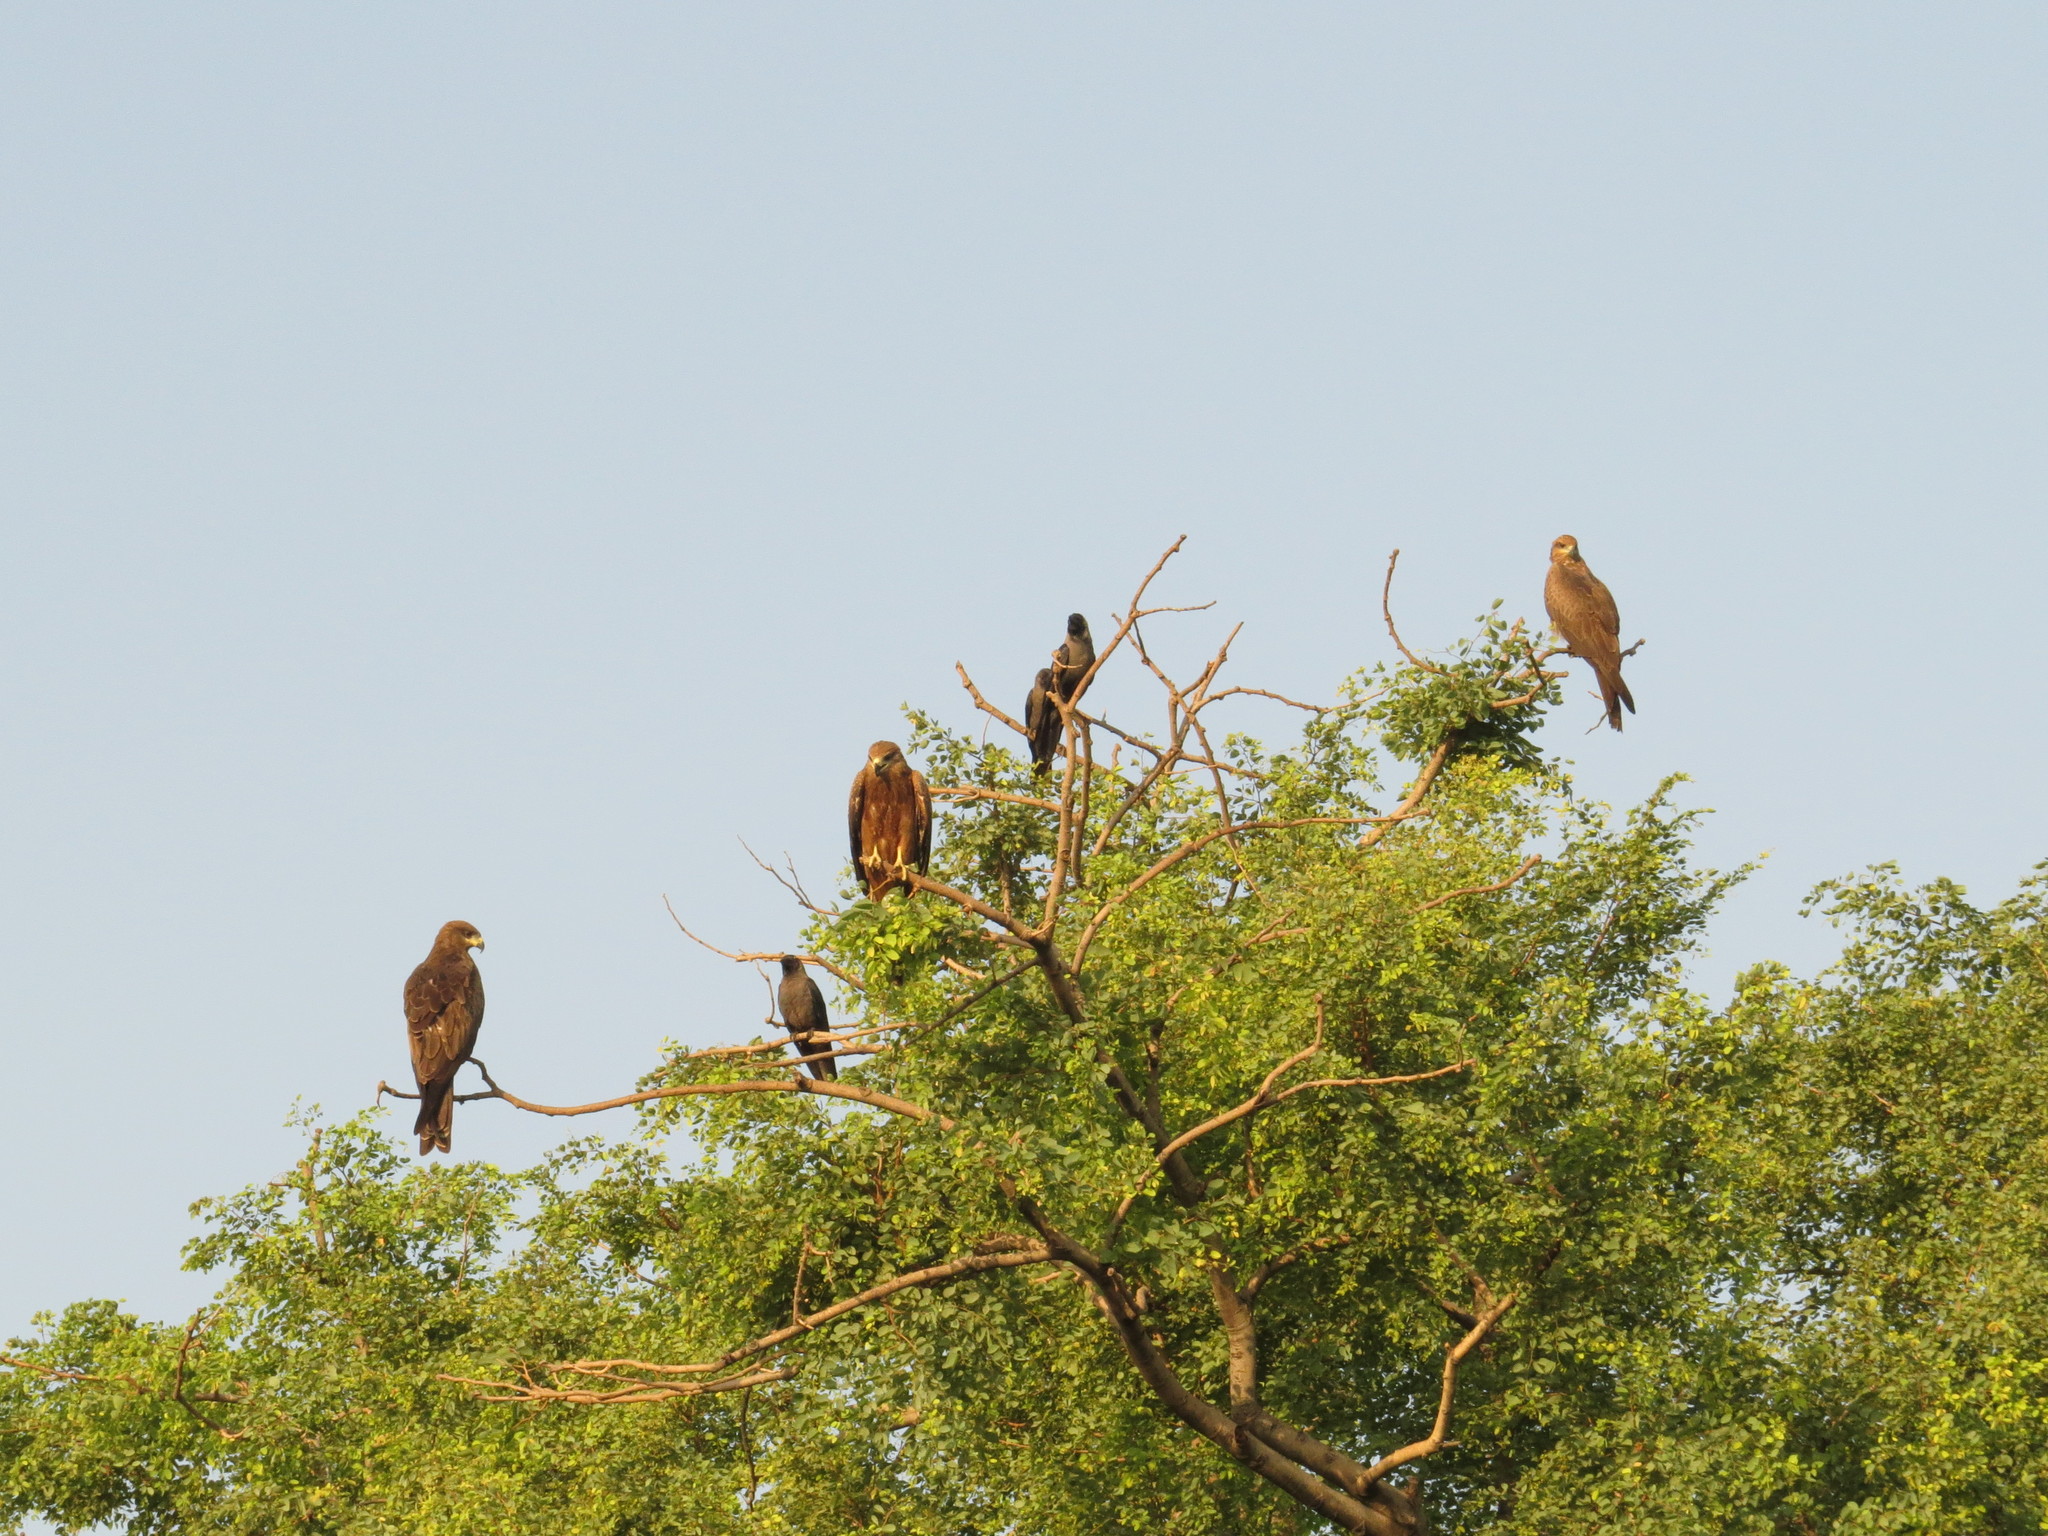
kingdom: Animalia
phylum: Chordata
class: Aves
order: Accipitriformes
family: Accipitridae
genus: Milvus
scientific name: Milvus migrans
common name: Black kite
